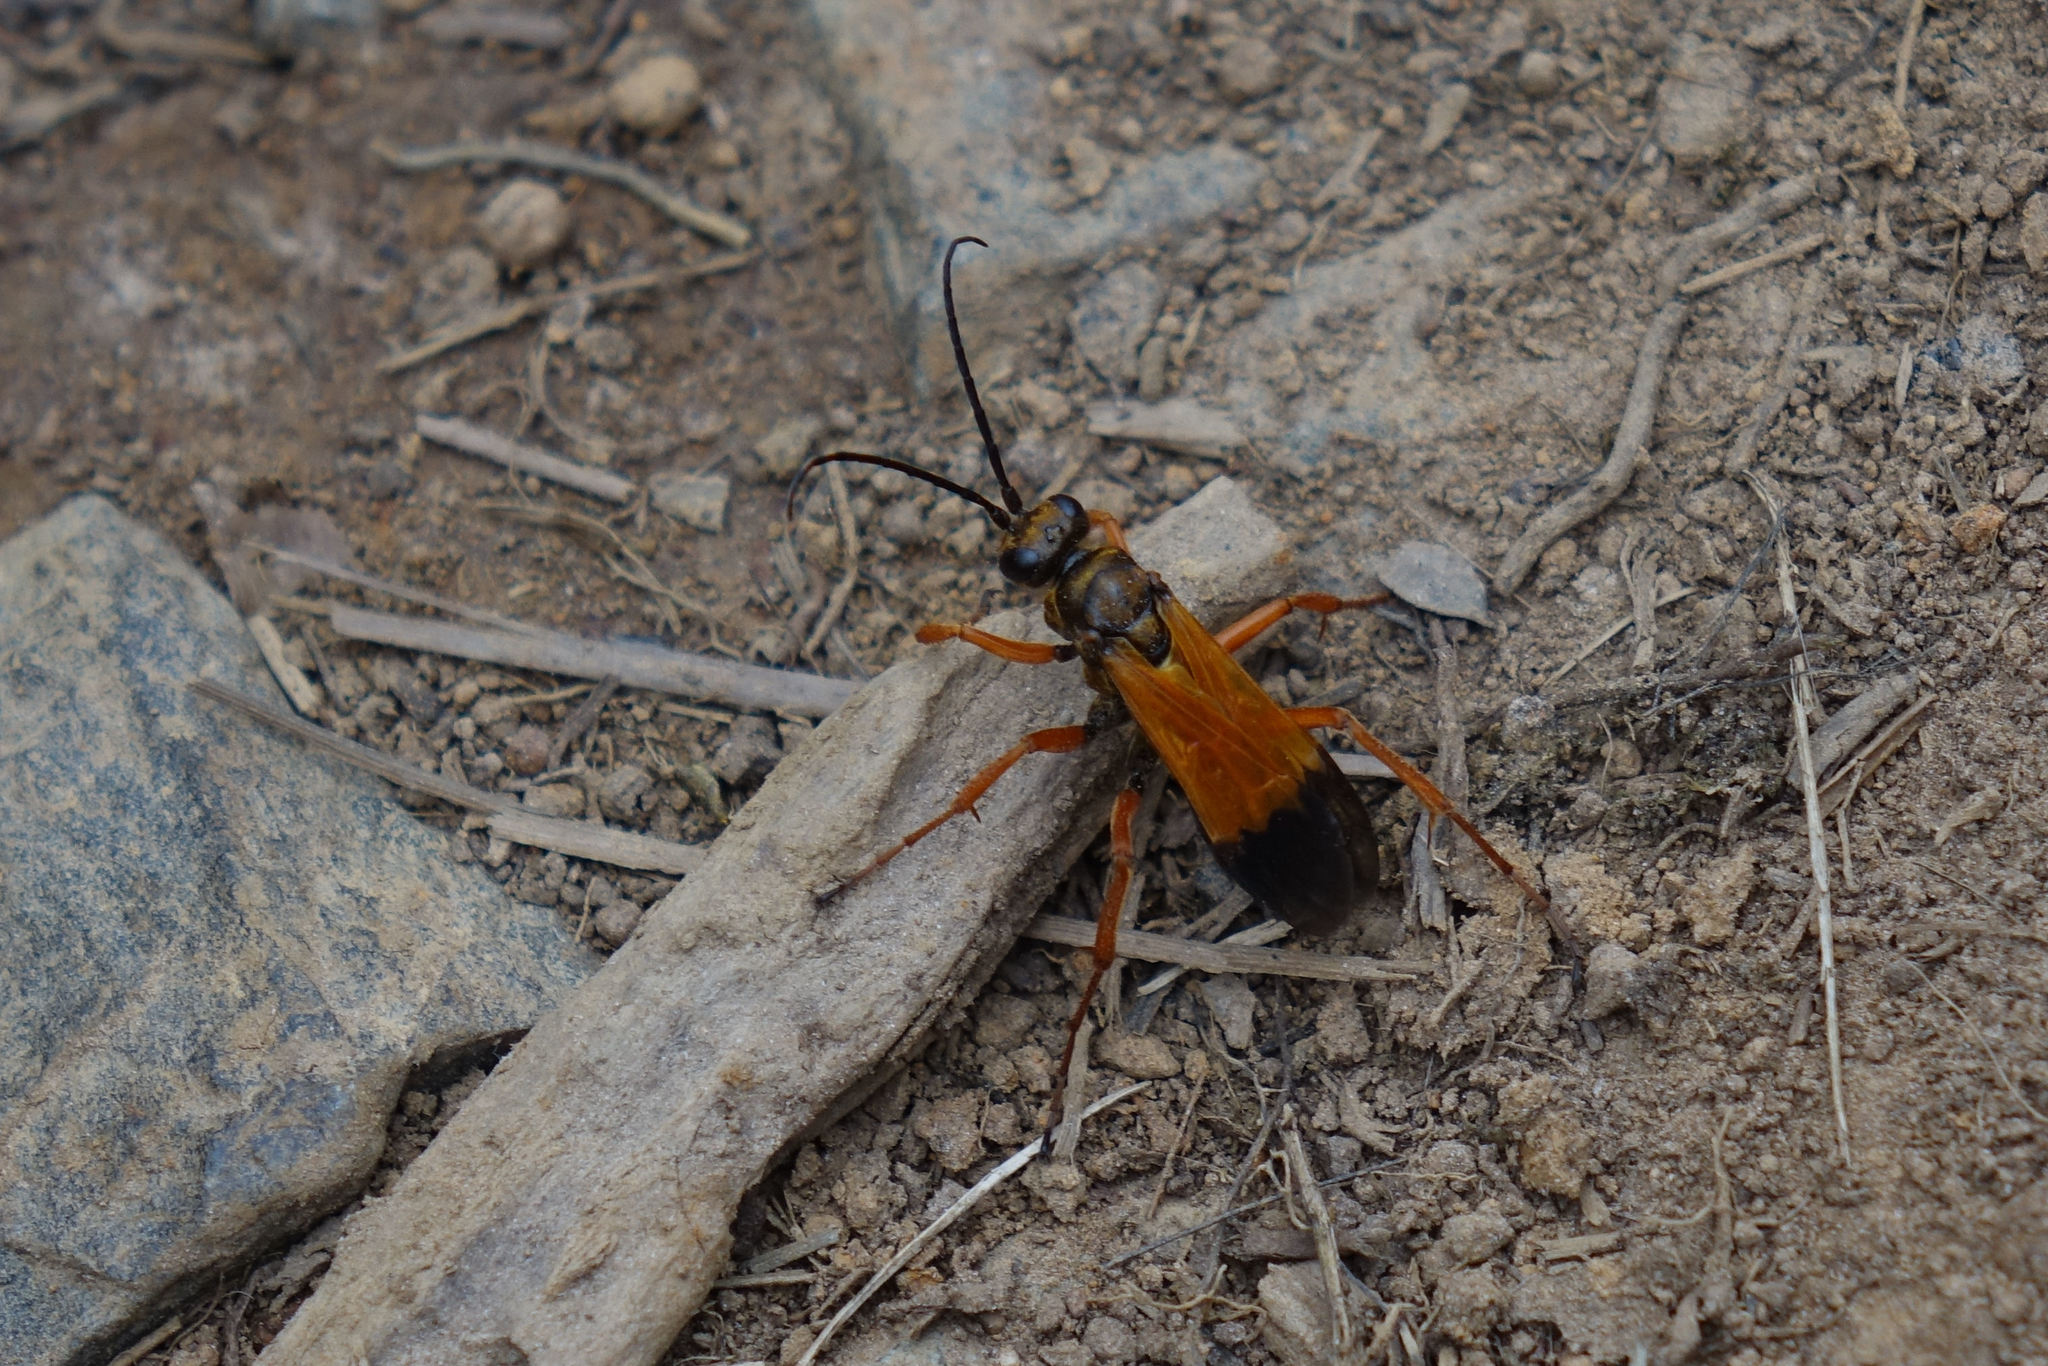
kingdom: Animalia
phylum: Arthropoda
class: Insecta
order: Hymenoptera
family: Pompilidae
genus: Priocnemis
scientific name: Priocnemis conformis
